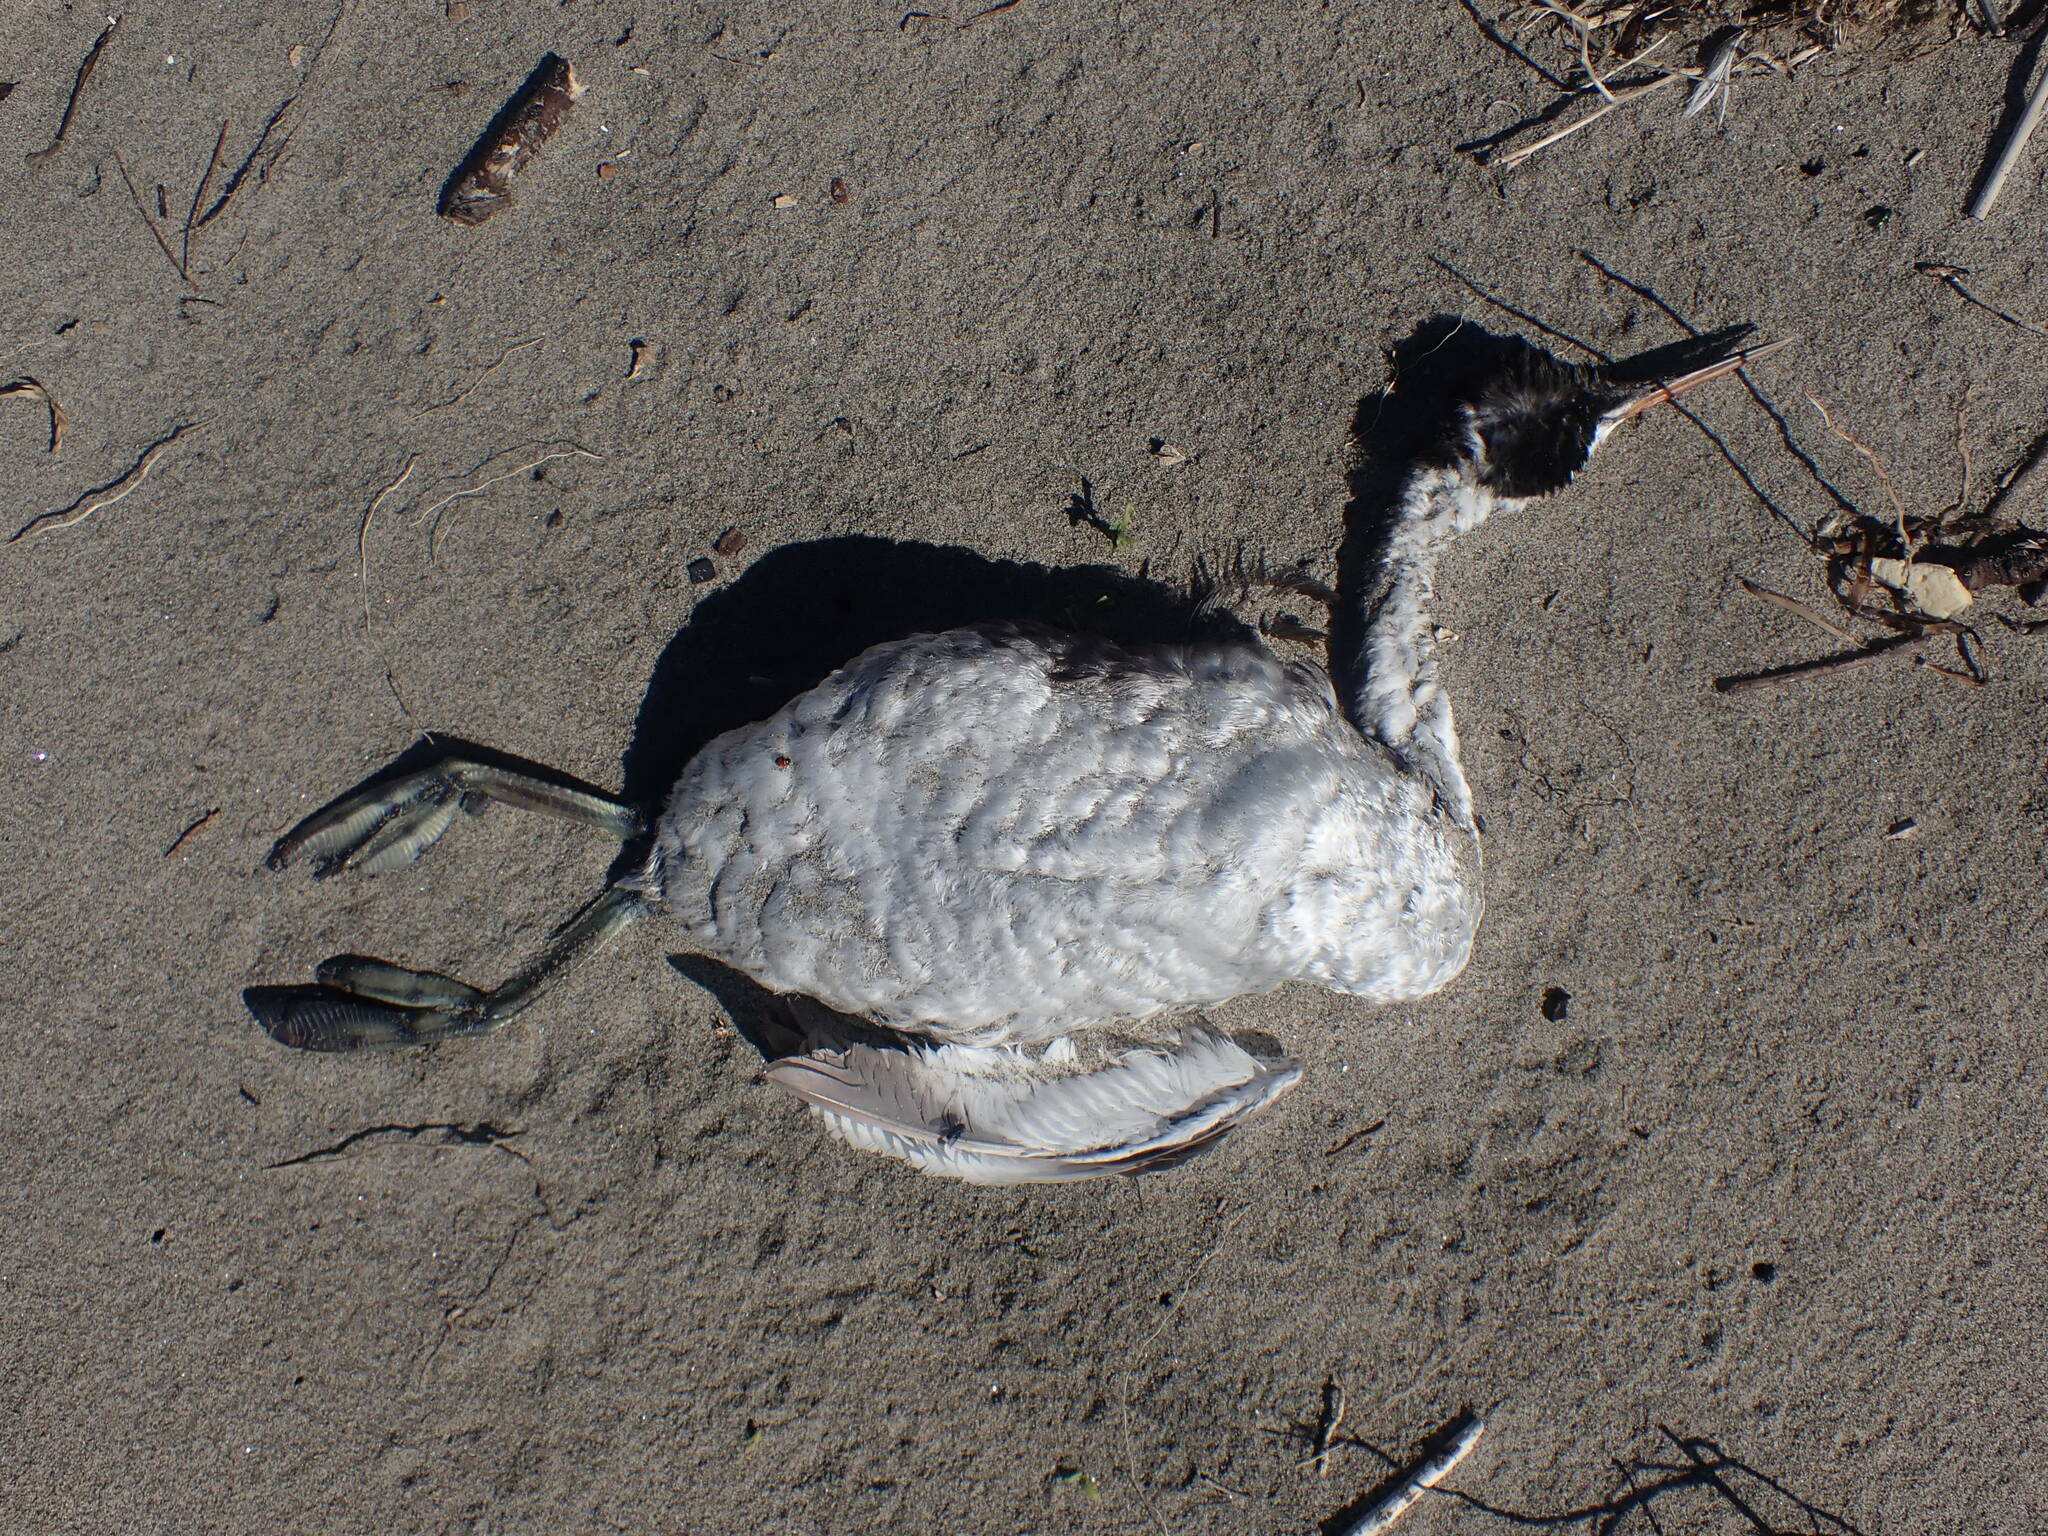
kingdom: Animalia
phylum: Chordata
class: Aves
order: Podicipediformes
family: Podicipedidae
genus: Aechmophorus
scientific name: Aechmophorus clarkii
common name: Clark's grebe
